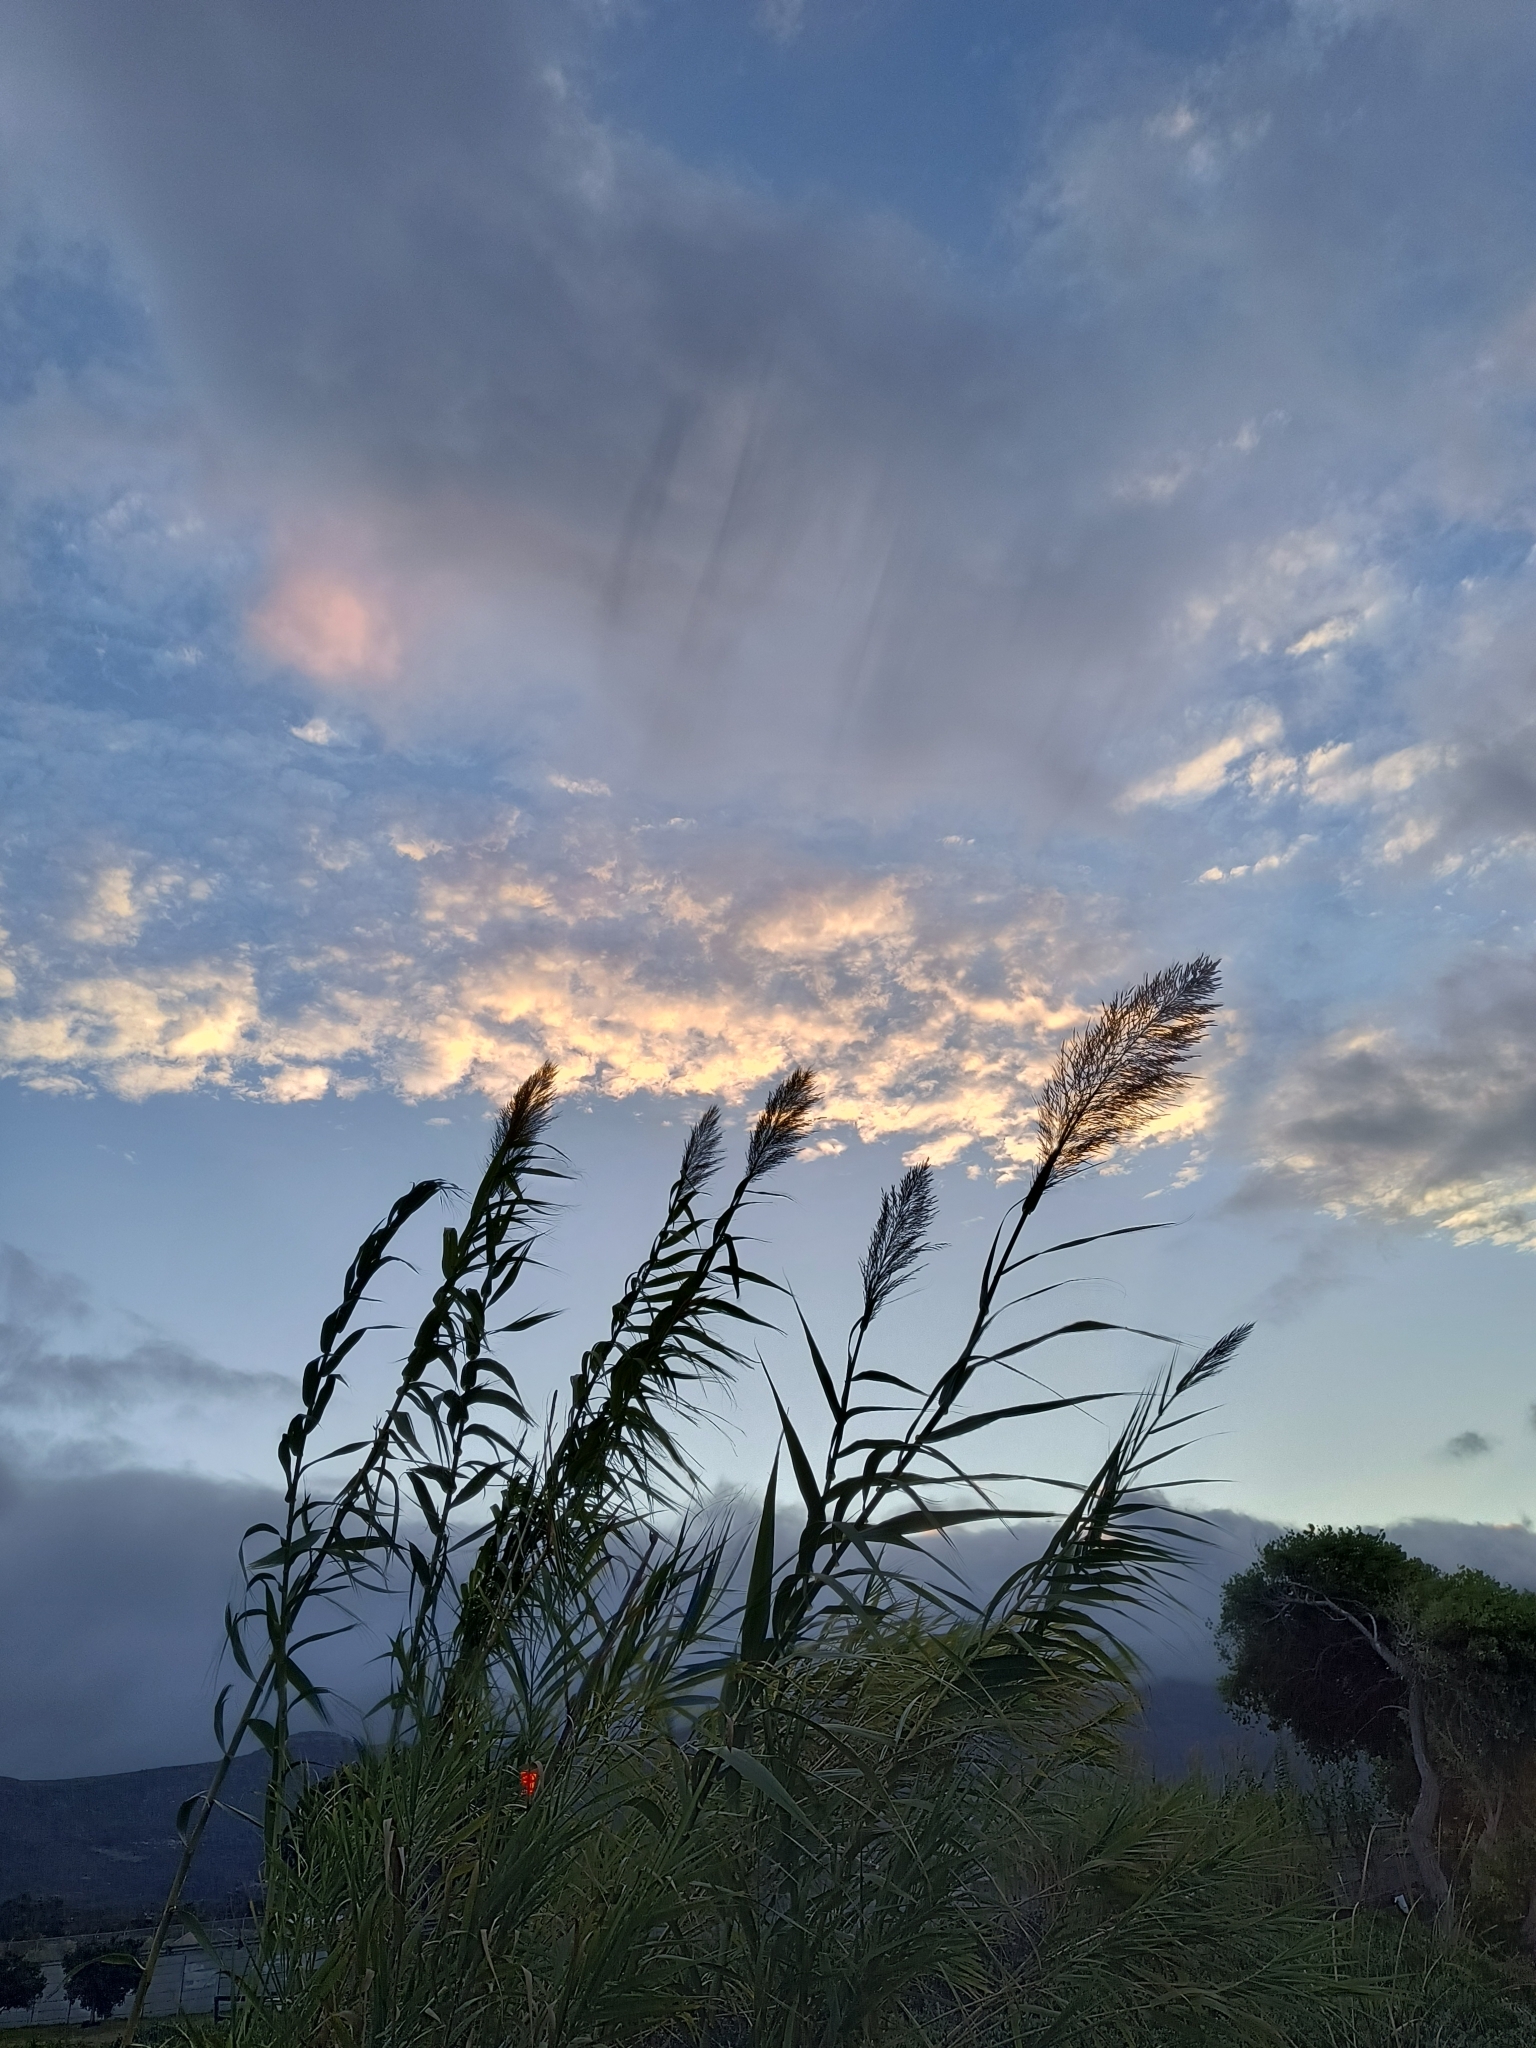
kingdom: Plantae
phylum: Tracheophyta
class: Liliopsida
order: Poales
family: Poaceae
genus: Arundo
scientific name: Arundo donax
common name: Giant reed
